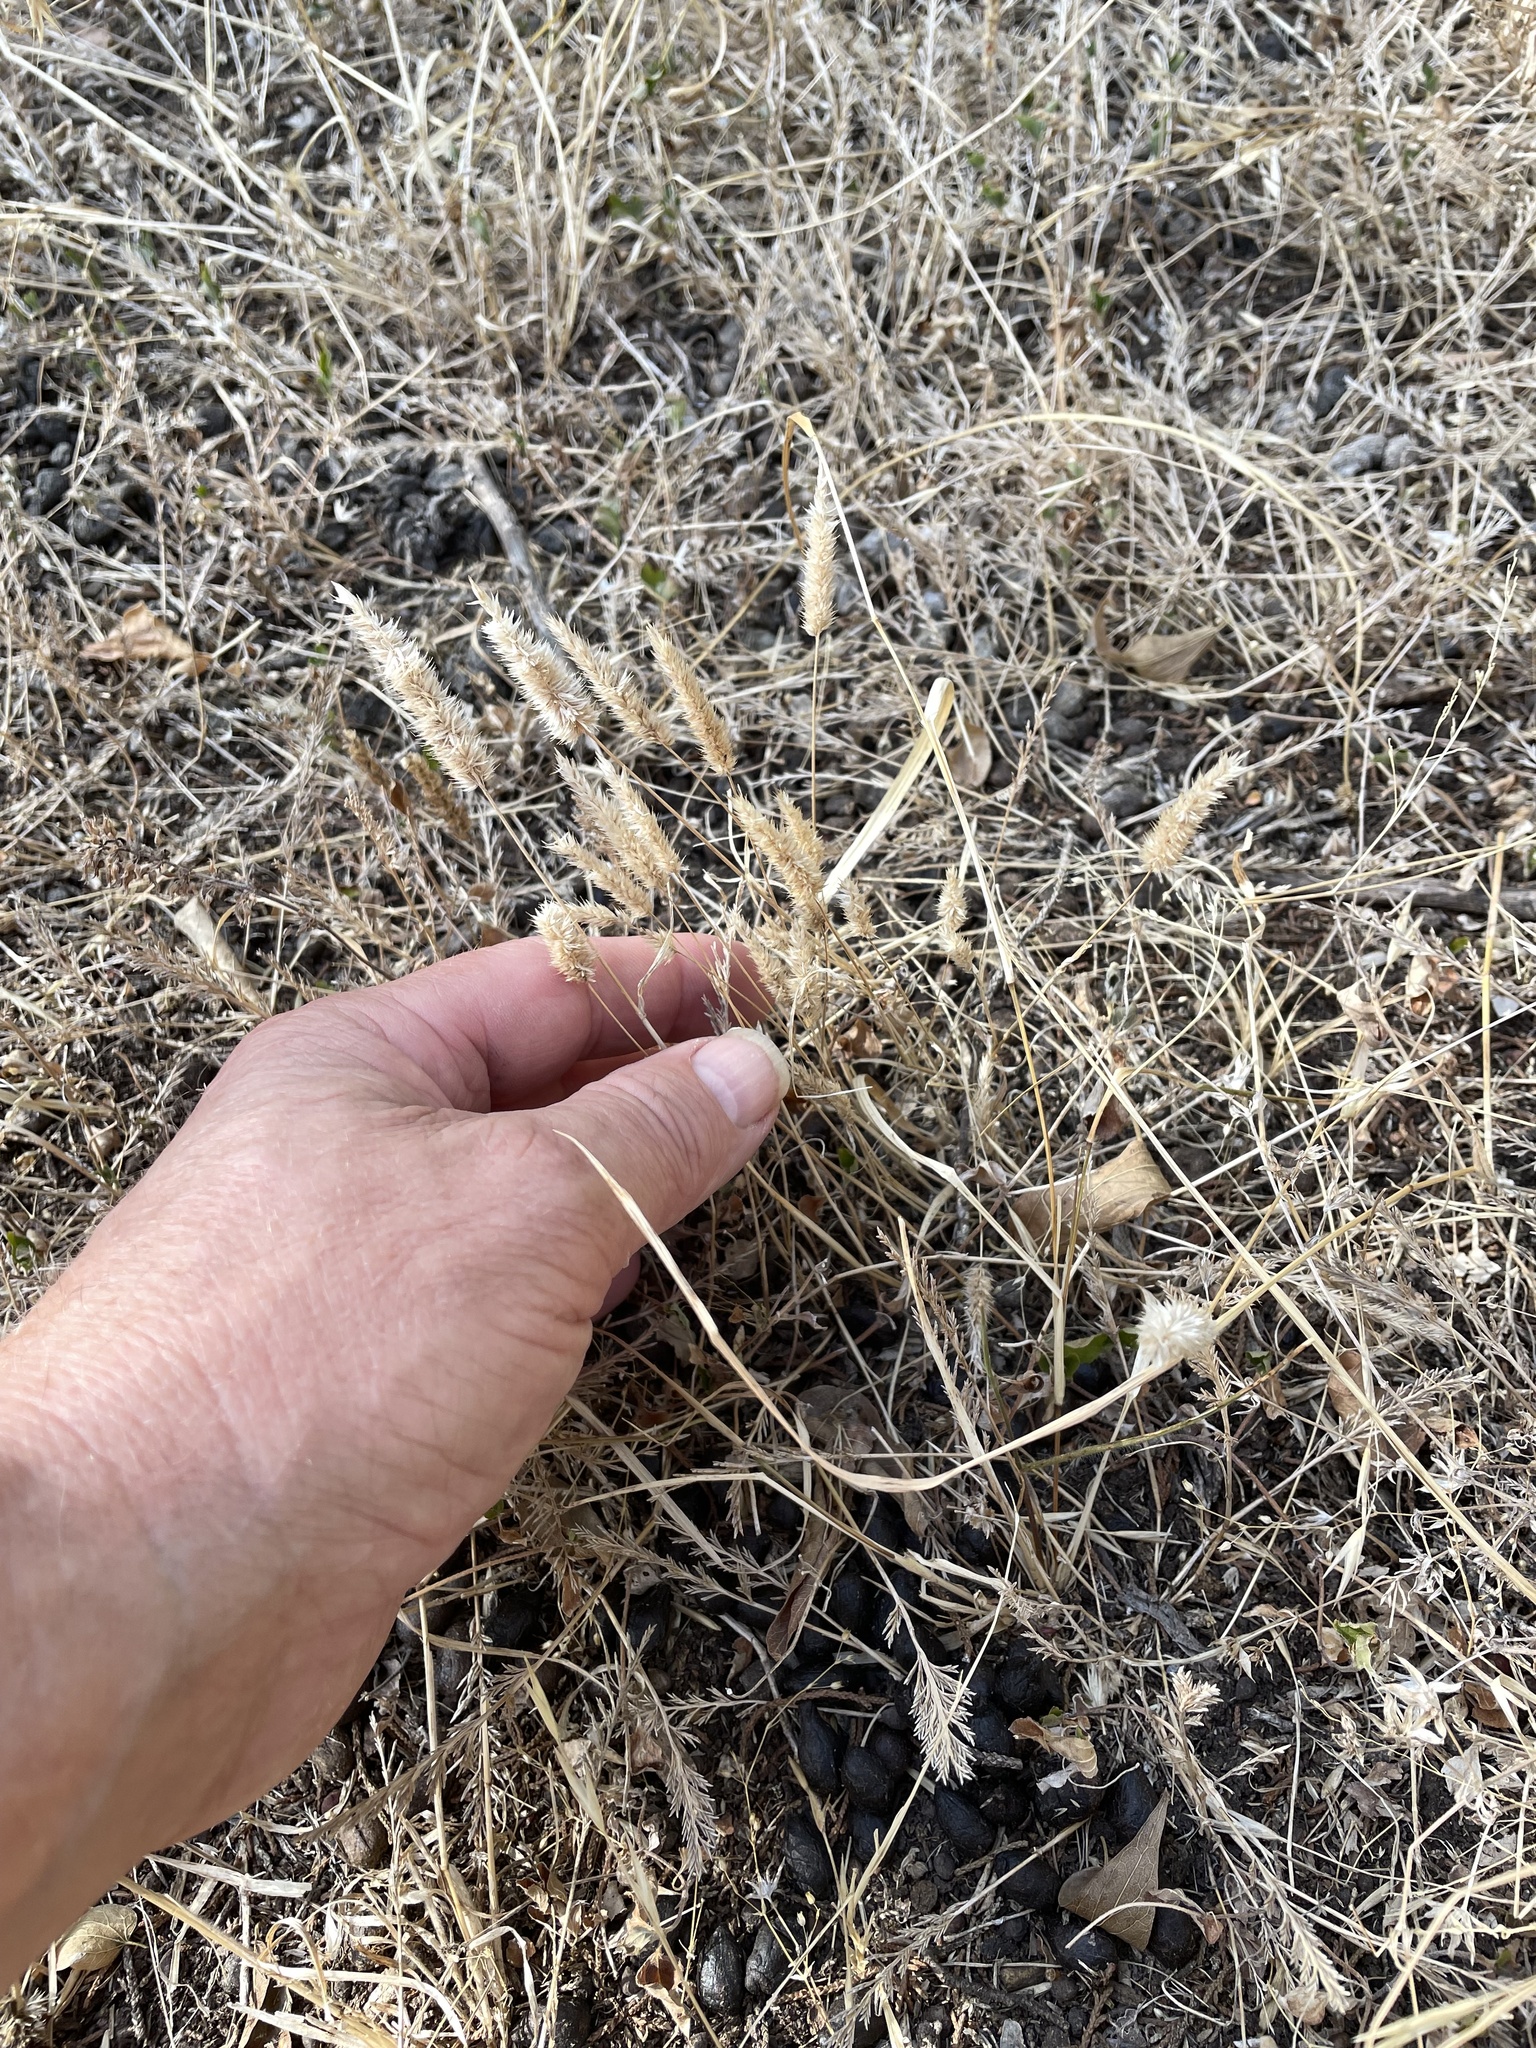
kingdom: Plantae
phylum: Tracheophyta
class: Liliopsida
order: Poales
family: Poaceae
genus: Rostraria
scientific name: Rostraria cristata
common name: Mediterranean hair-grass
